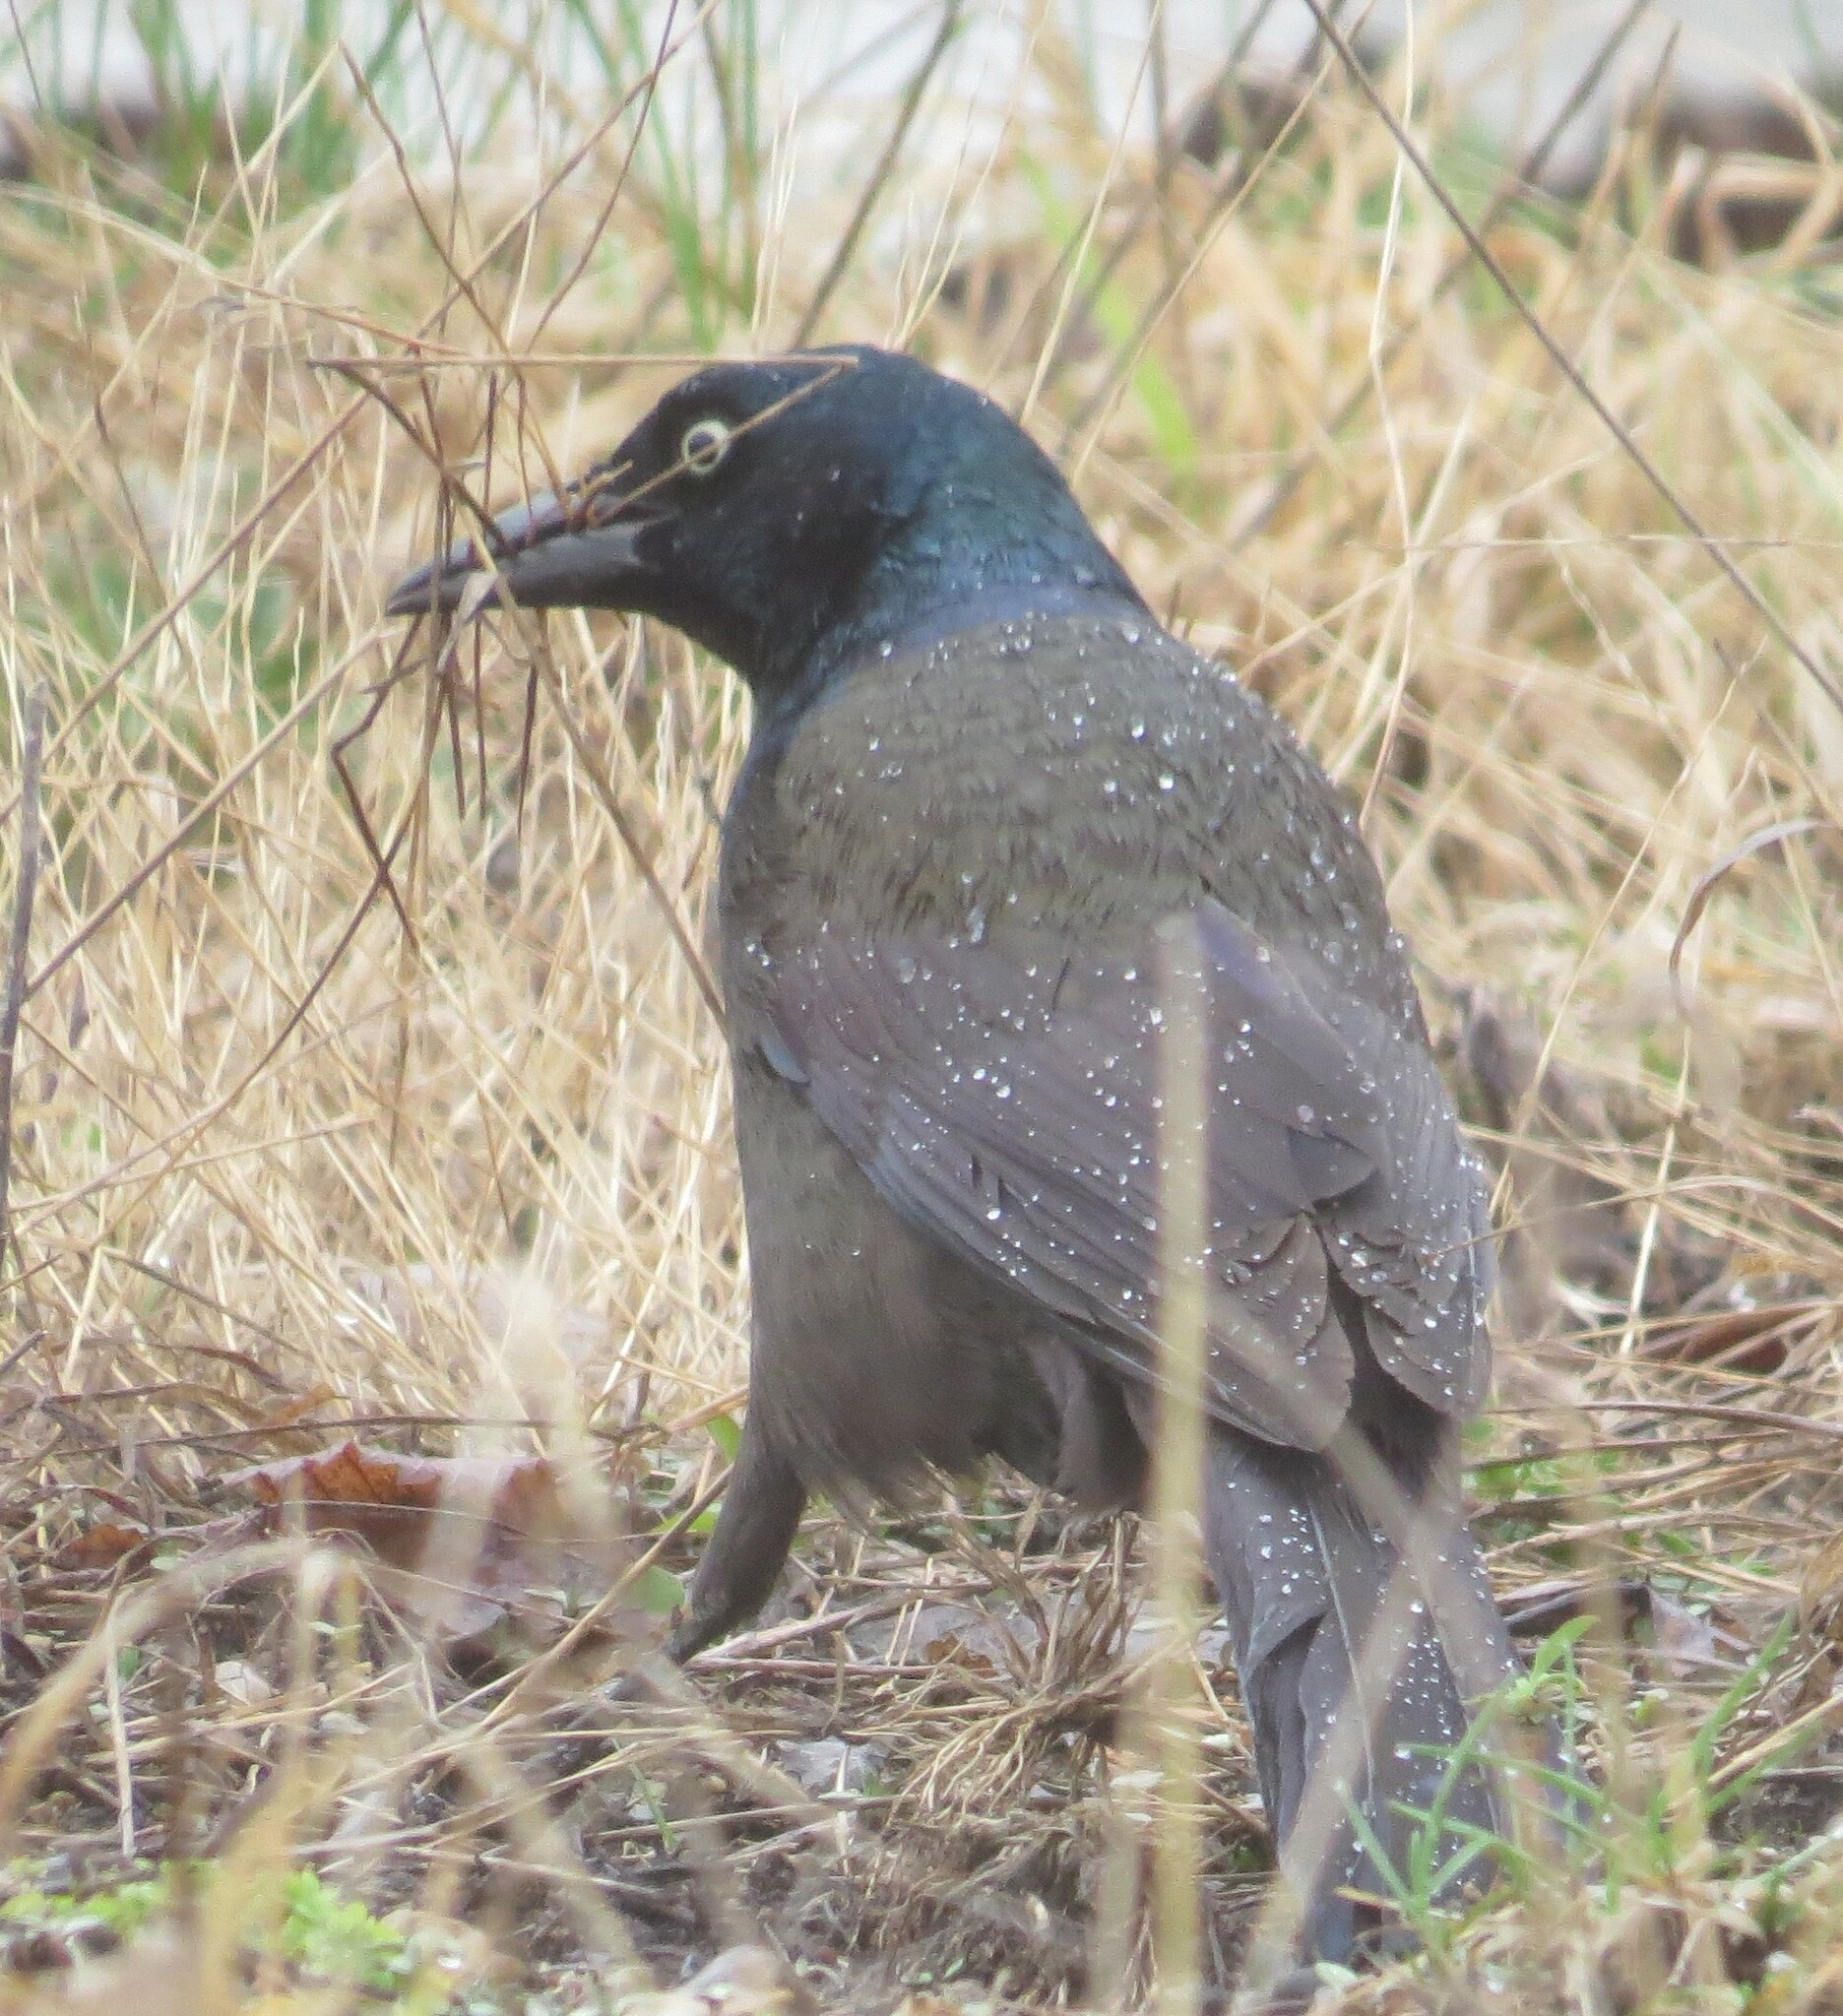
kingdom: Animalia
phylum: Chordata
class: Aves
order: Passeriformes
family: Icteridae
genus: Quiscalus
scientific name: Quiscalus quiscula
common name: Common grackle
